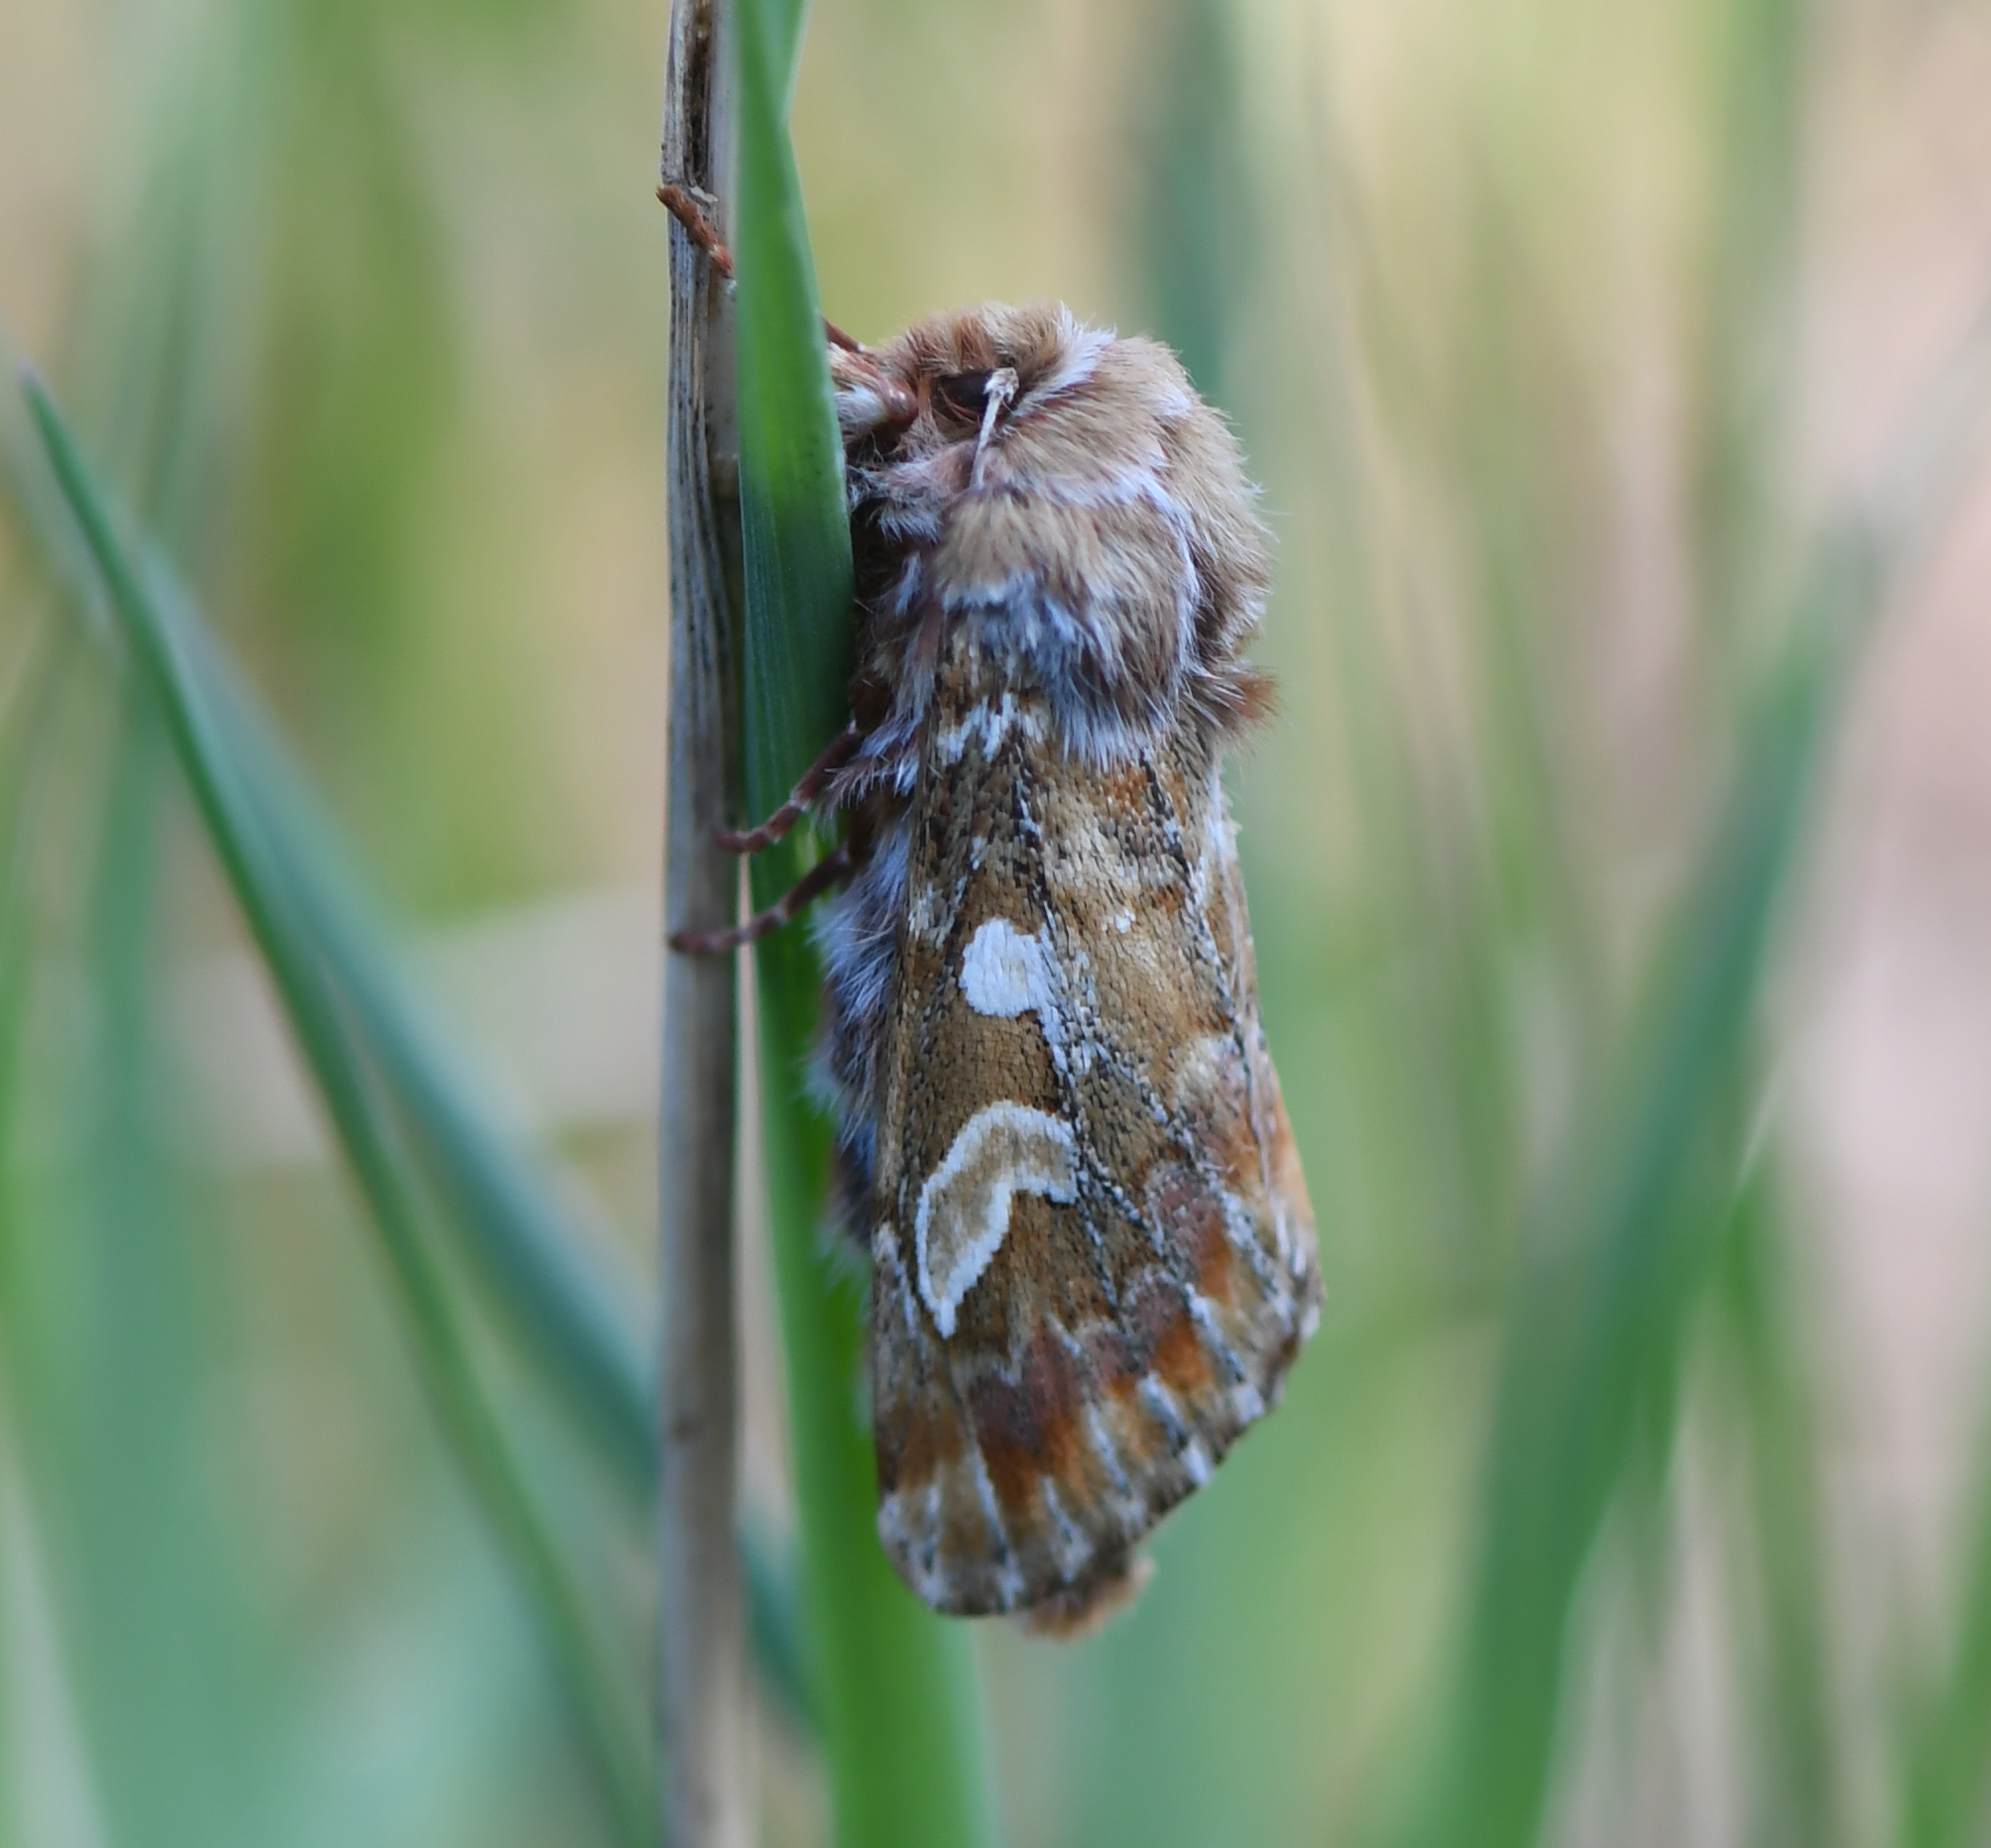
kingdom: Animalia
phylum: Arthropoda
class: Insecta
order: Lepidoptera
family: Noctuidae
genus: Panolis
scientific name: Panolis flammea
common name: Pine beauty
